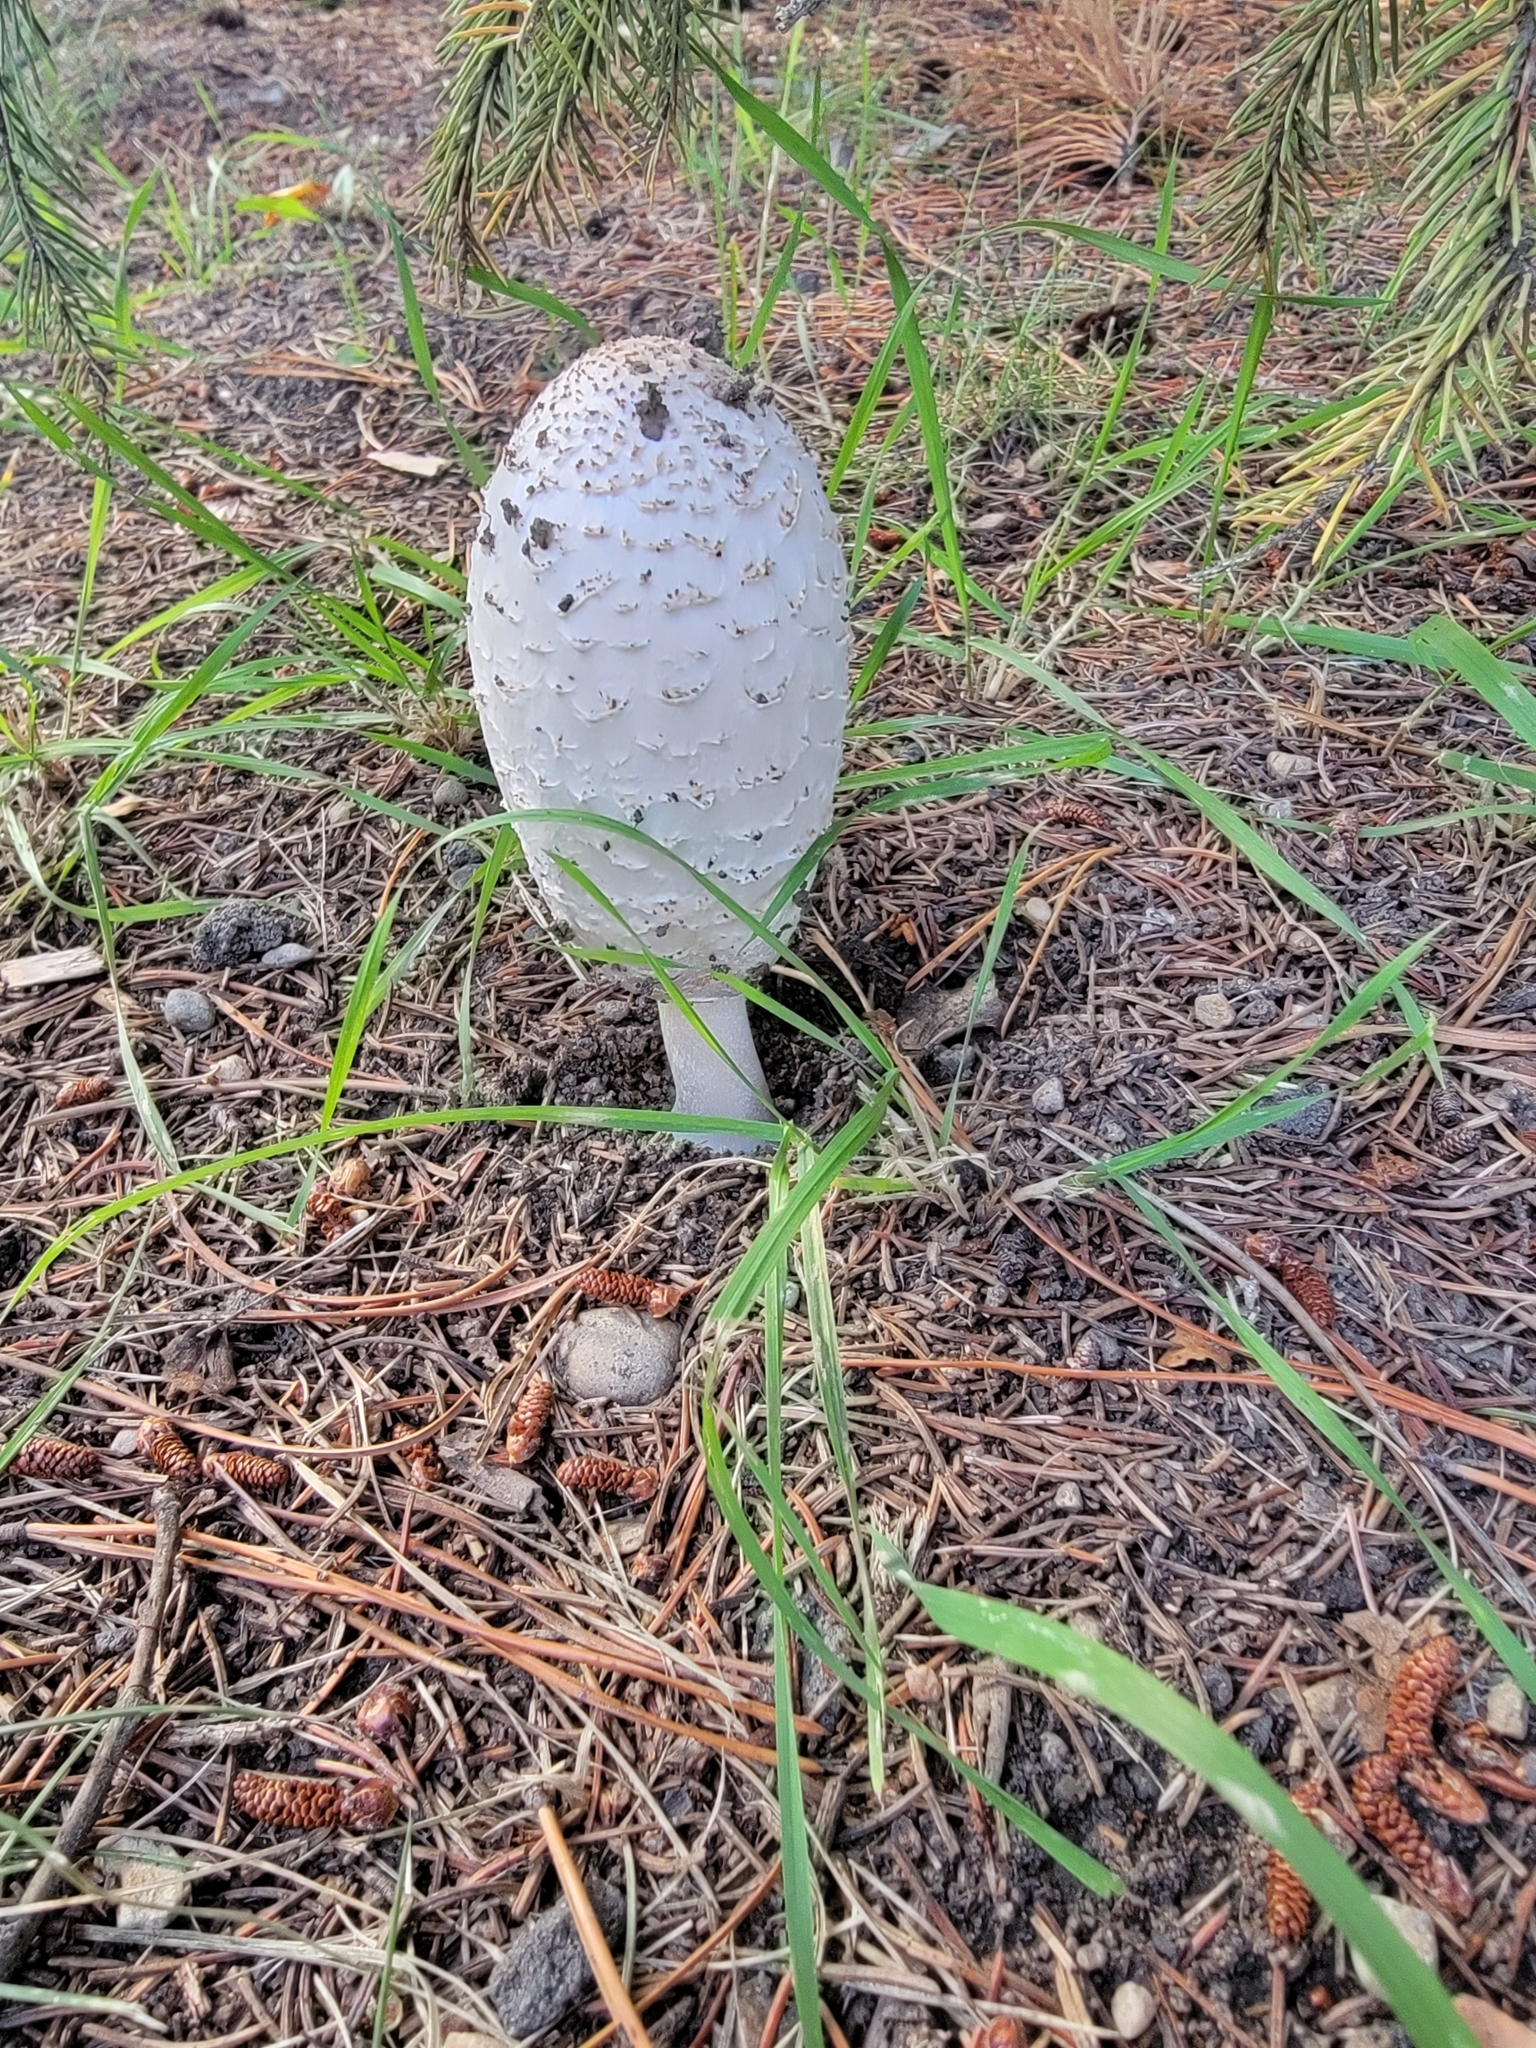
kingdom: Fungi
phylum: Basidiomycota
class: Agaricomycetes
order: Agaricales
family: Agaricaceae
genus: Coprinus
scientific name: Coprinus comatus
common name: Lawyer's wig
